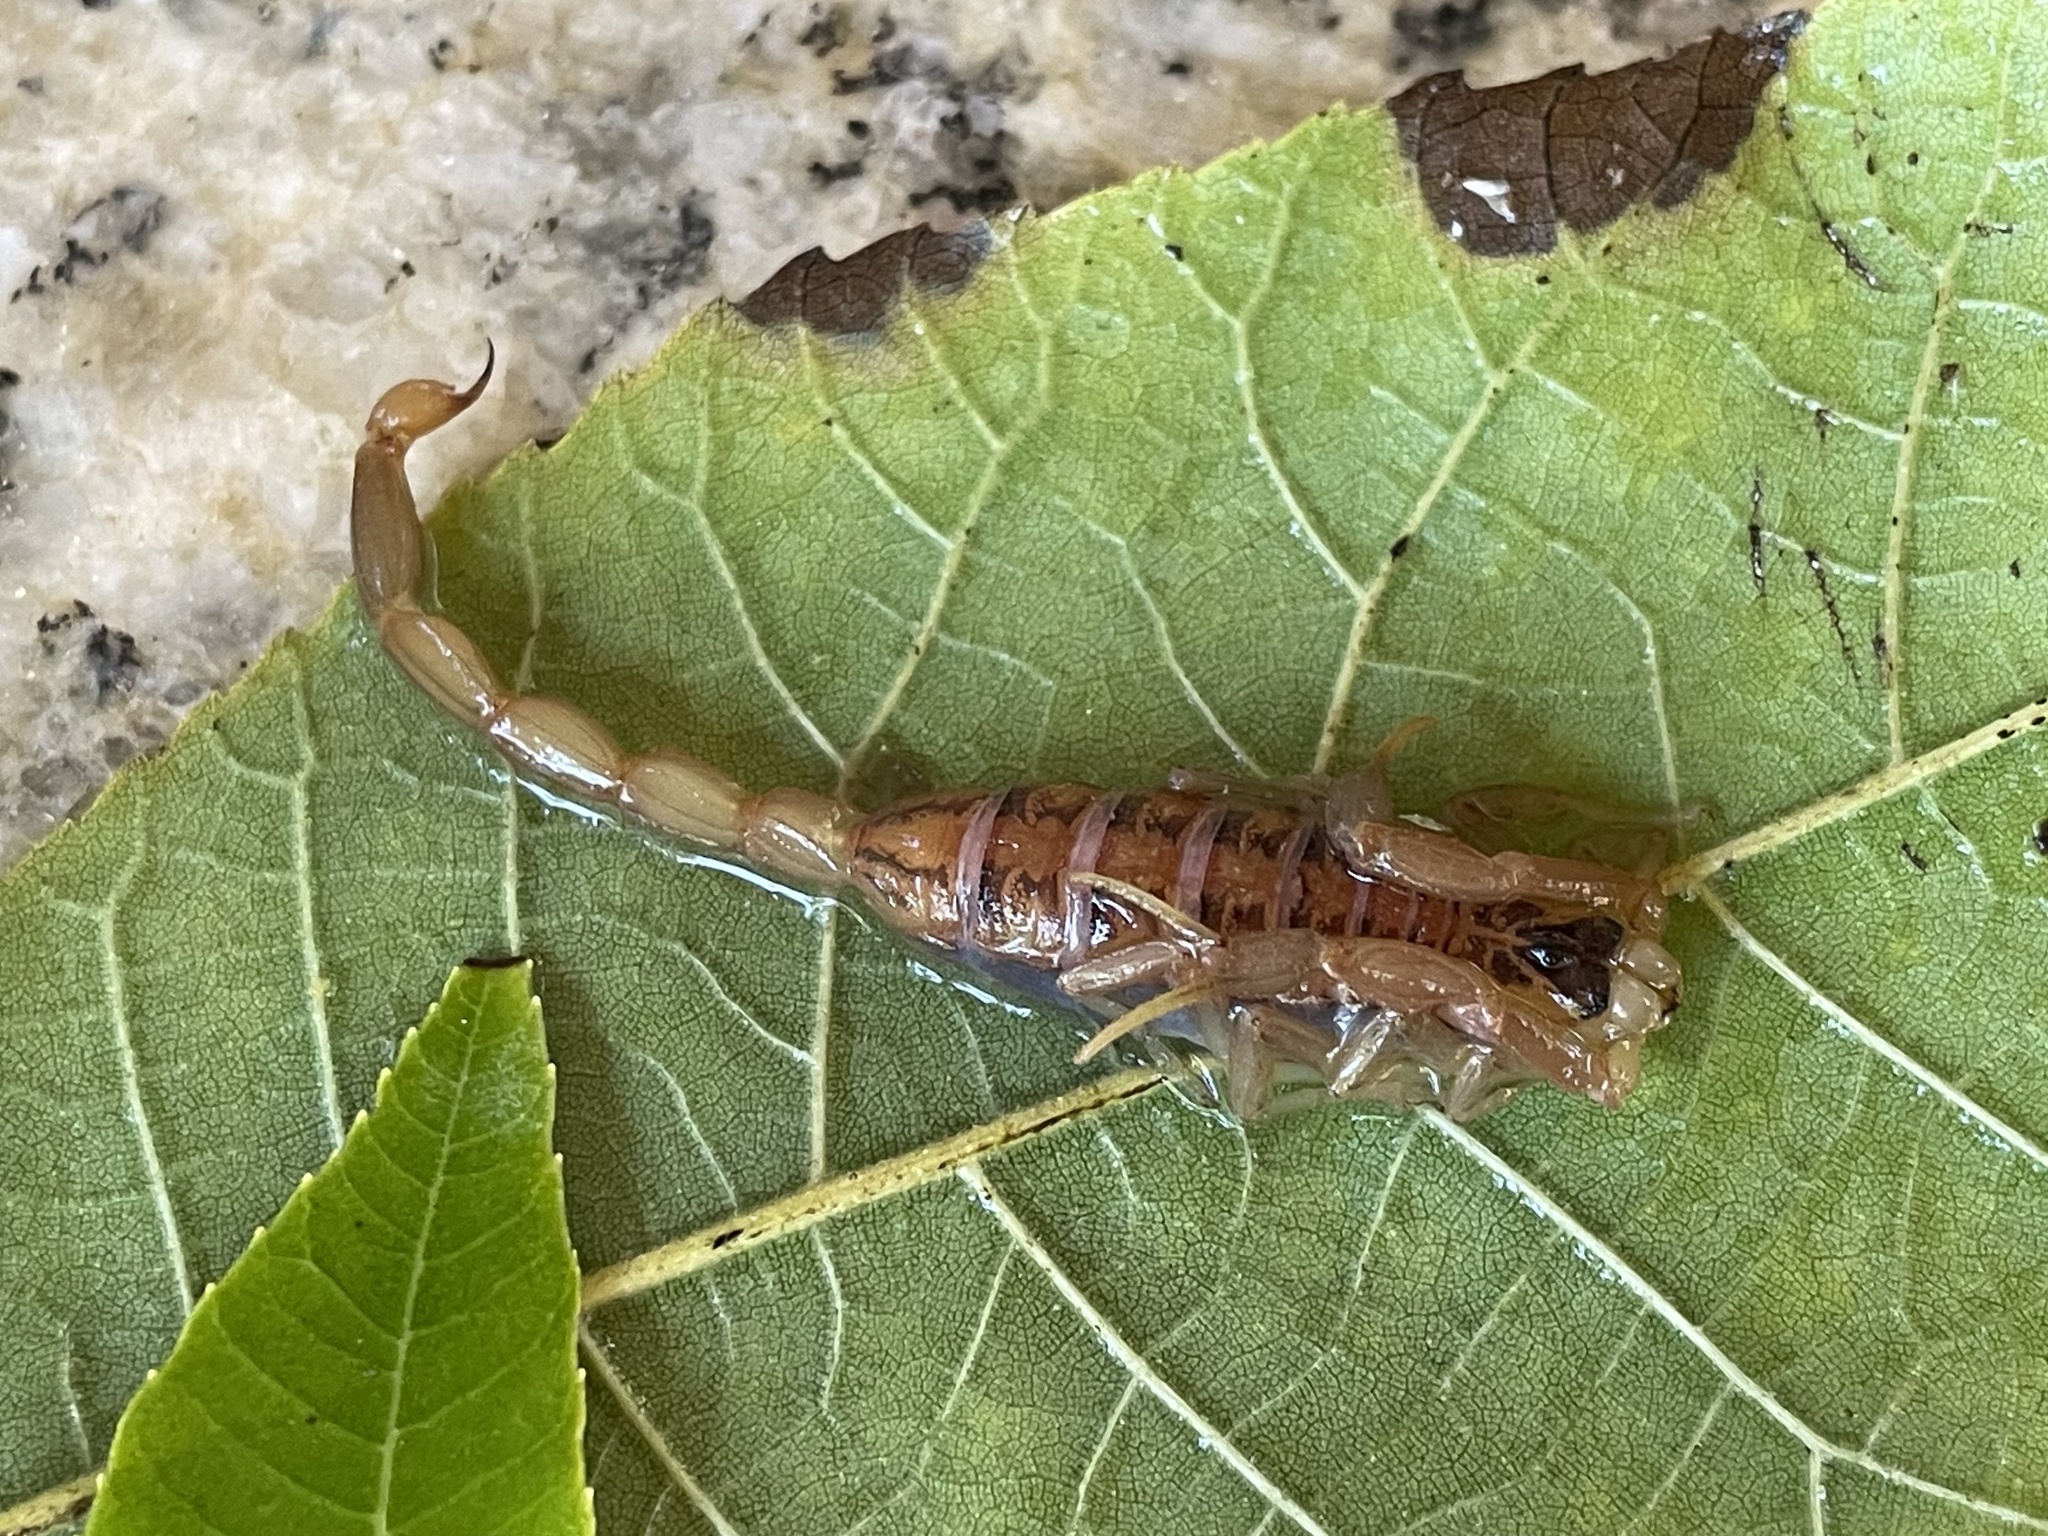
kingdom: Animalia
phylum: Arthropoda
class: Arachnida
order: Scorpiones
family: Buthidae
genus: Centruroides
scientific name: Centruroides vittatus
